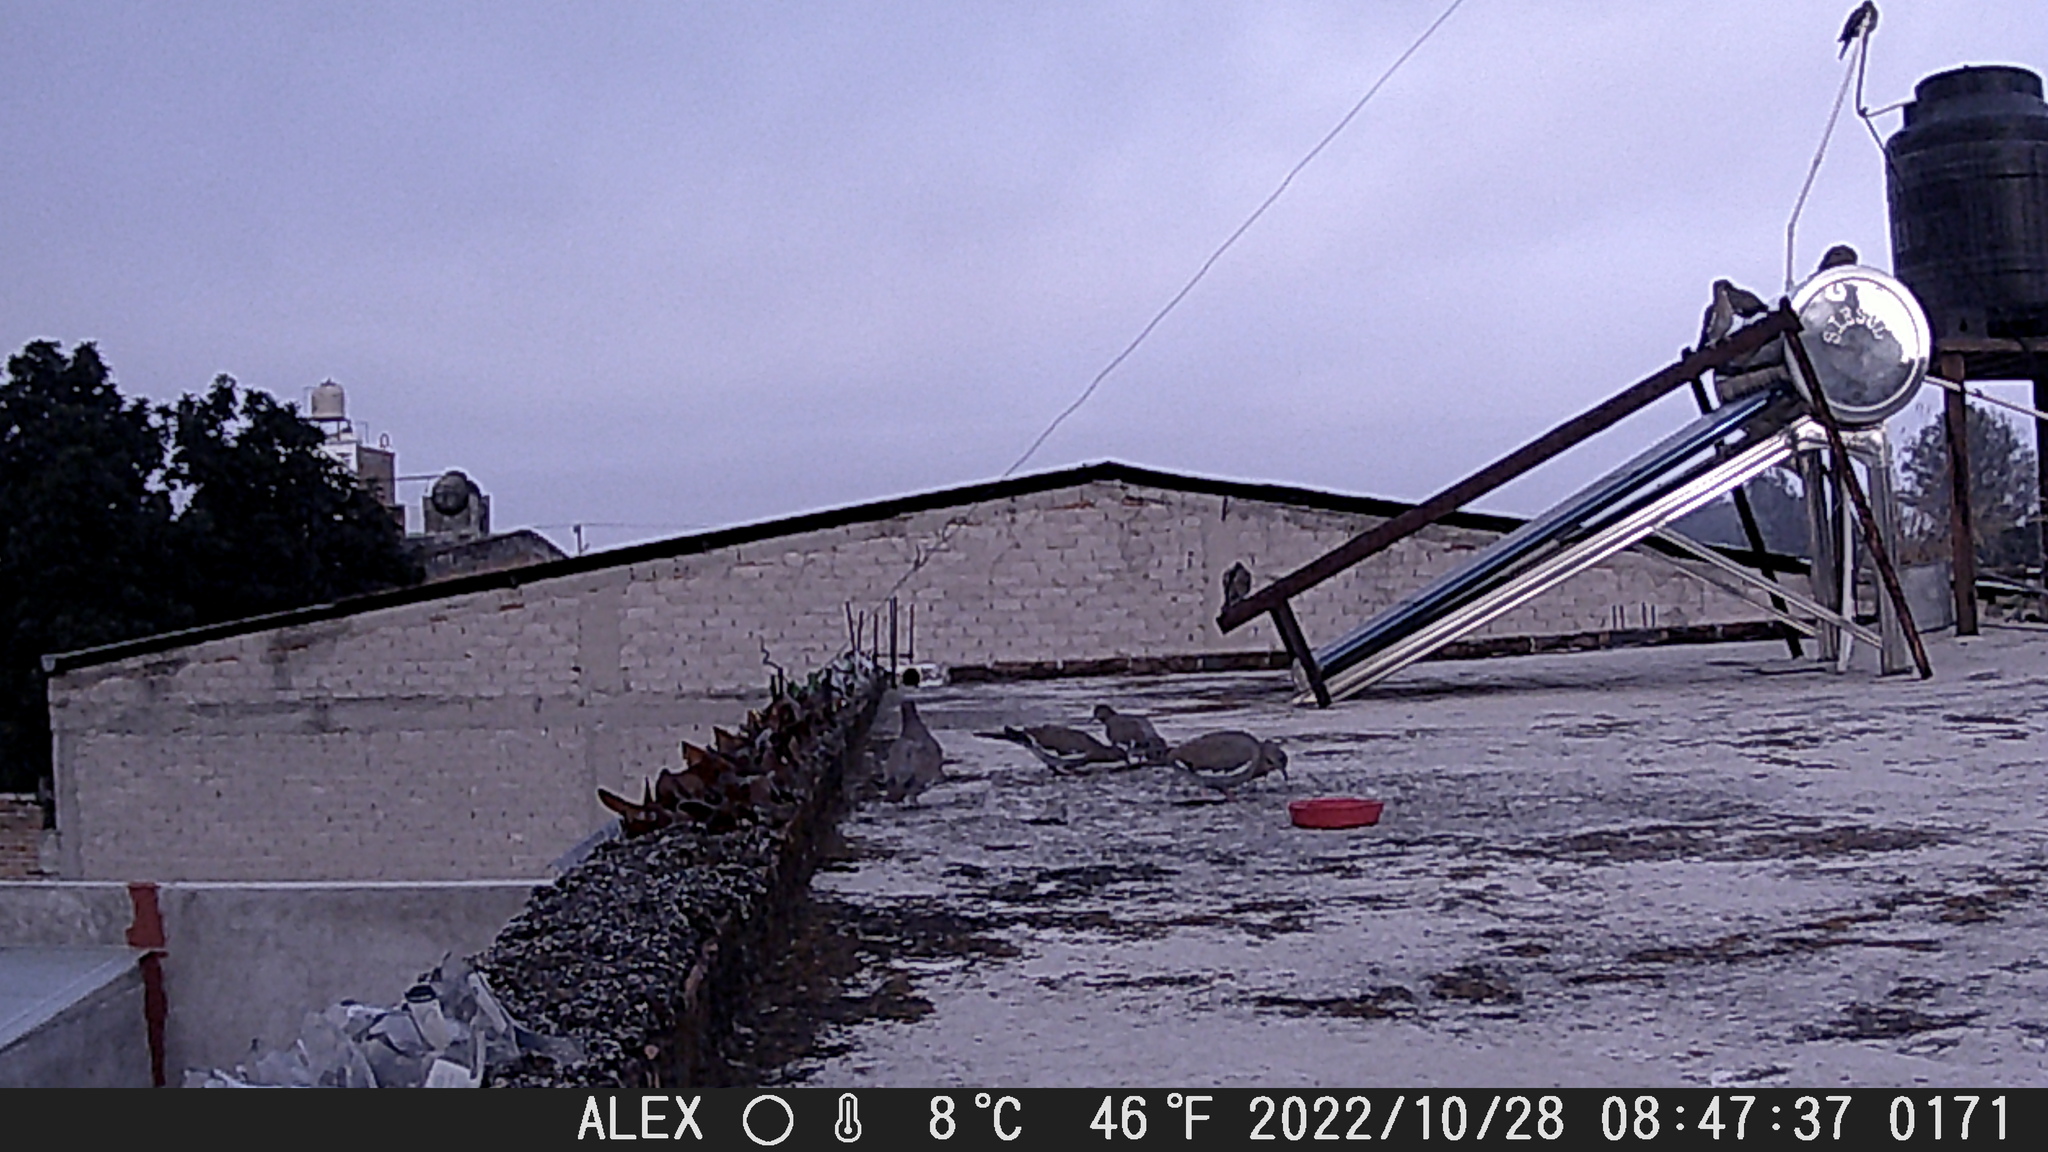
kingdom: Animalia
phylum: Chordata
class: Aves
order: Columbiformes
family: Columbidae
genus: Zenaida
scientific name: Zenaida asiatica
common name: White-winged dove
